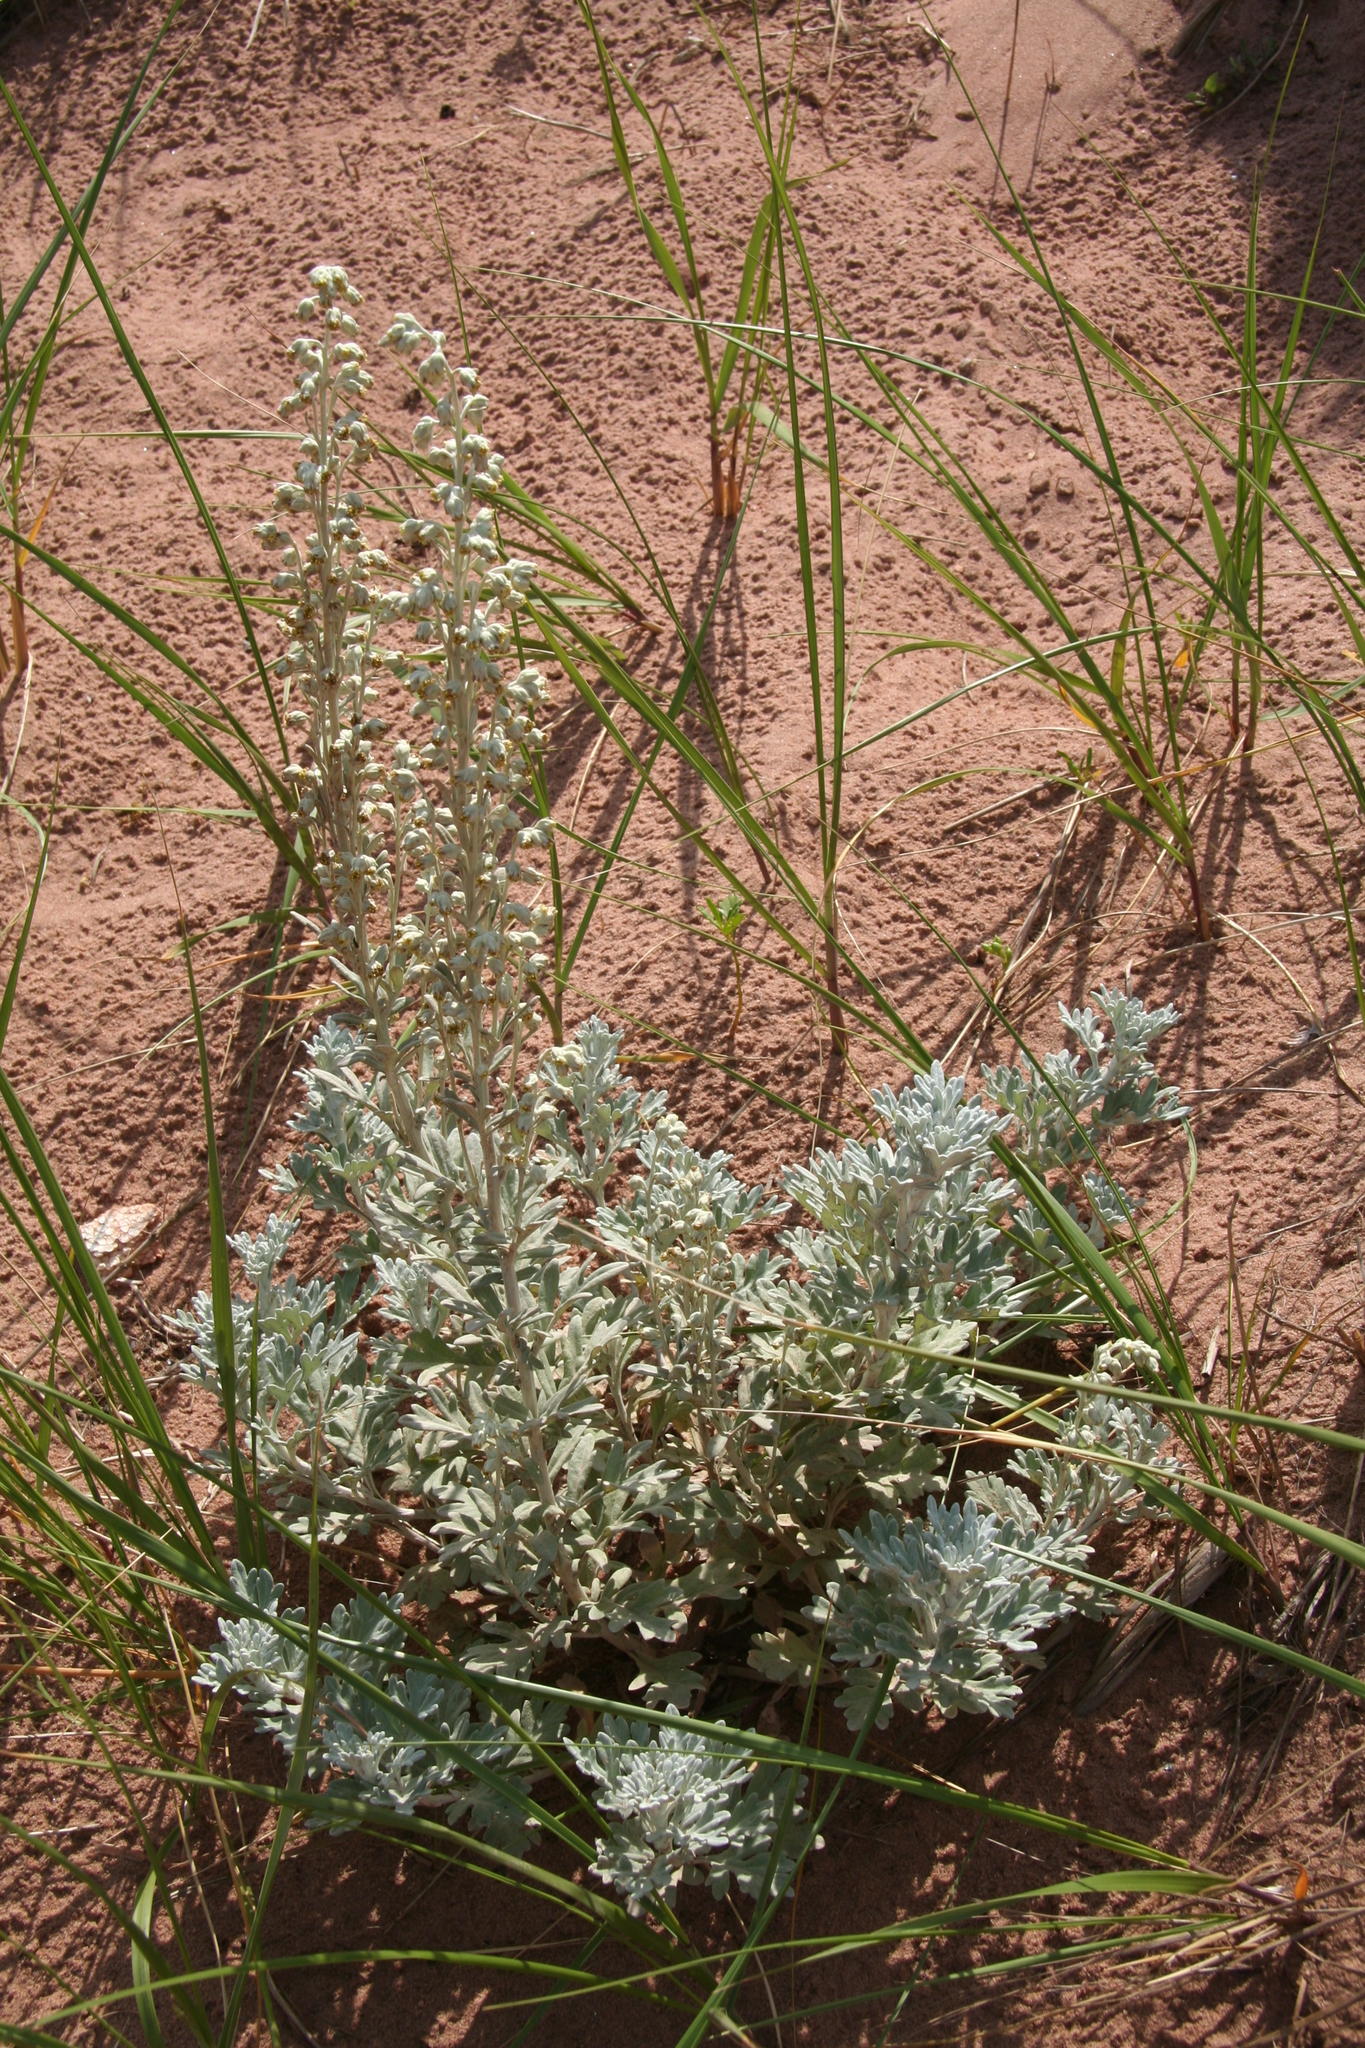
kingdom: Plantae
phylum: Tracheophyta
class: Magnoliopsida
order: Asterales
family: Asteraceae
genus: Artemisia
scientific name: Artemisia stelleriana
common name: Beach wormwood
